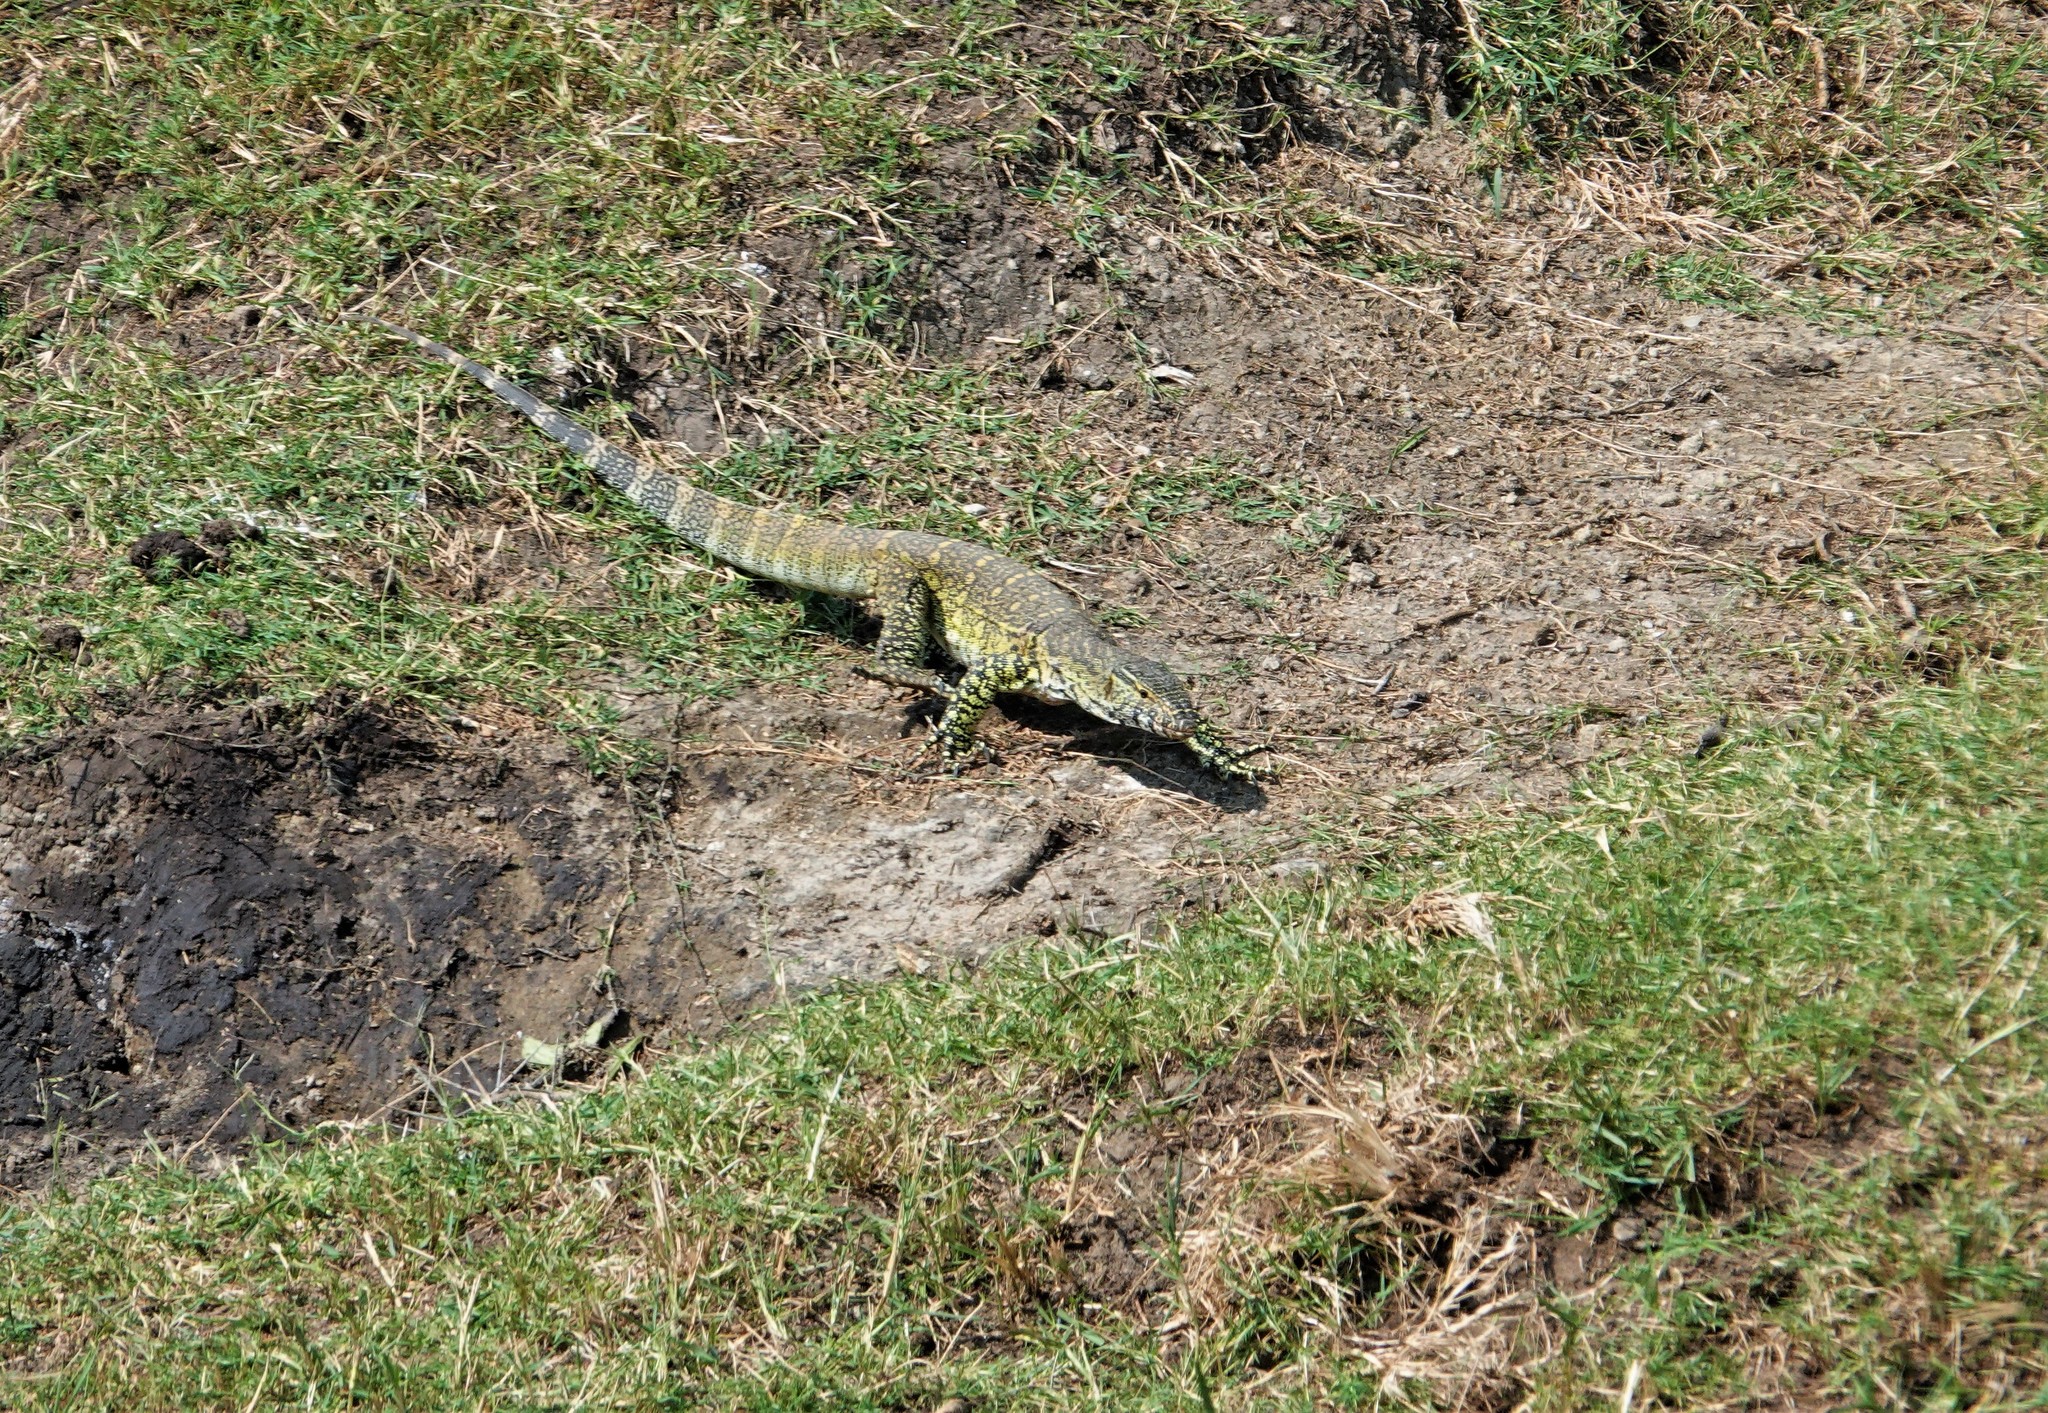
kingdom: Animalia
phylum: Chordata
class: Squamata
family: Varanidae
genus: Varanus
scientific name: Varanus niloticus
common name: Nile monitor
